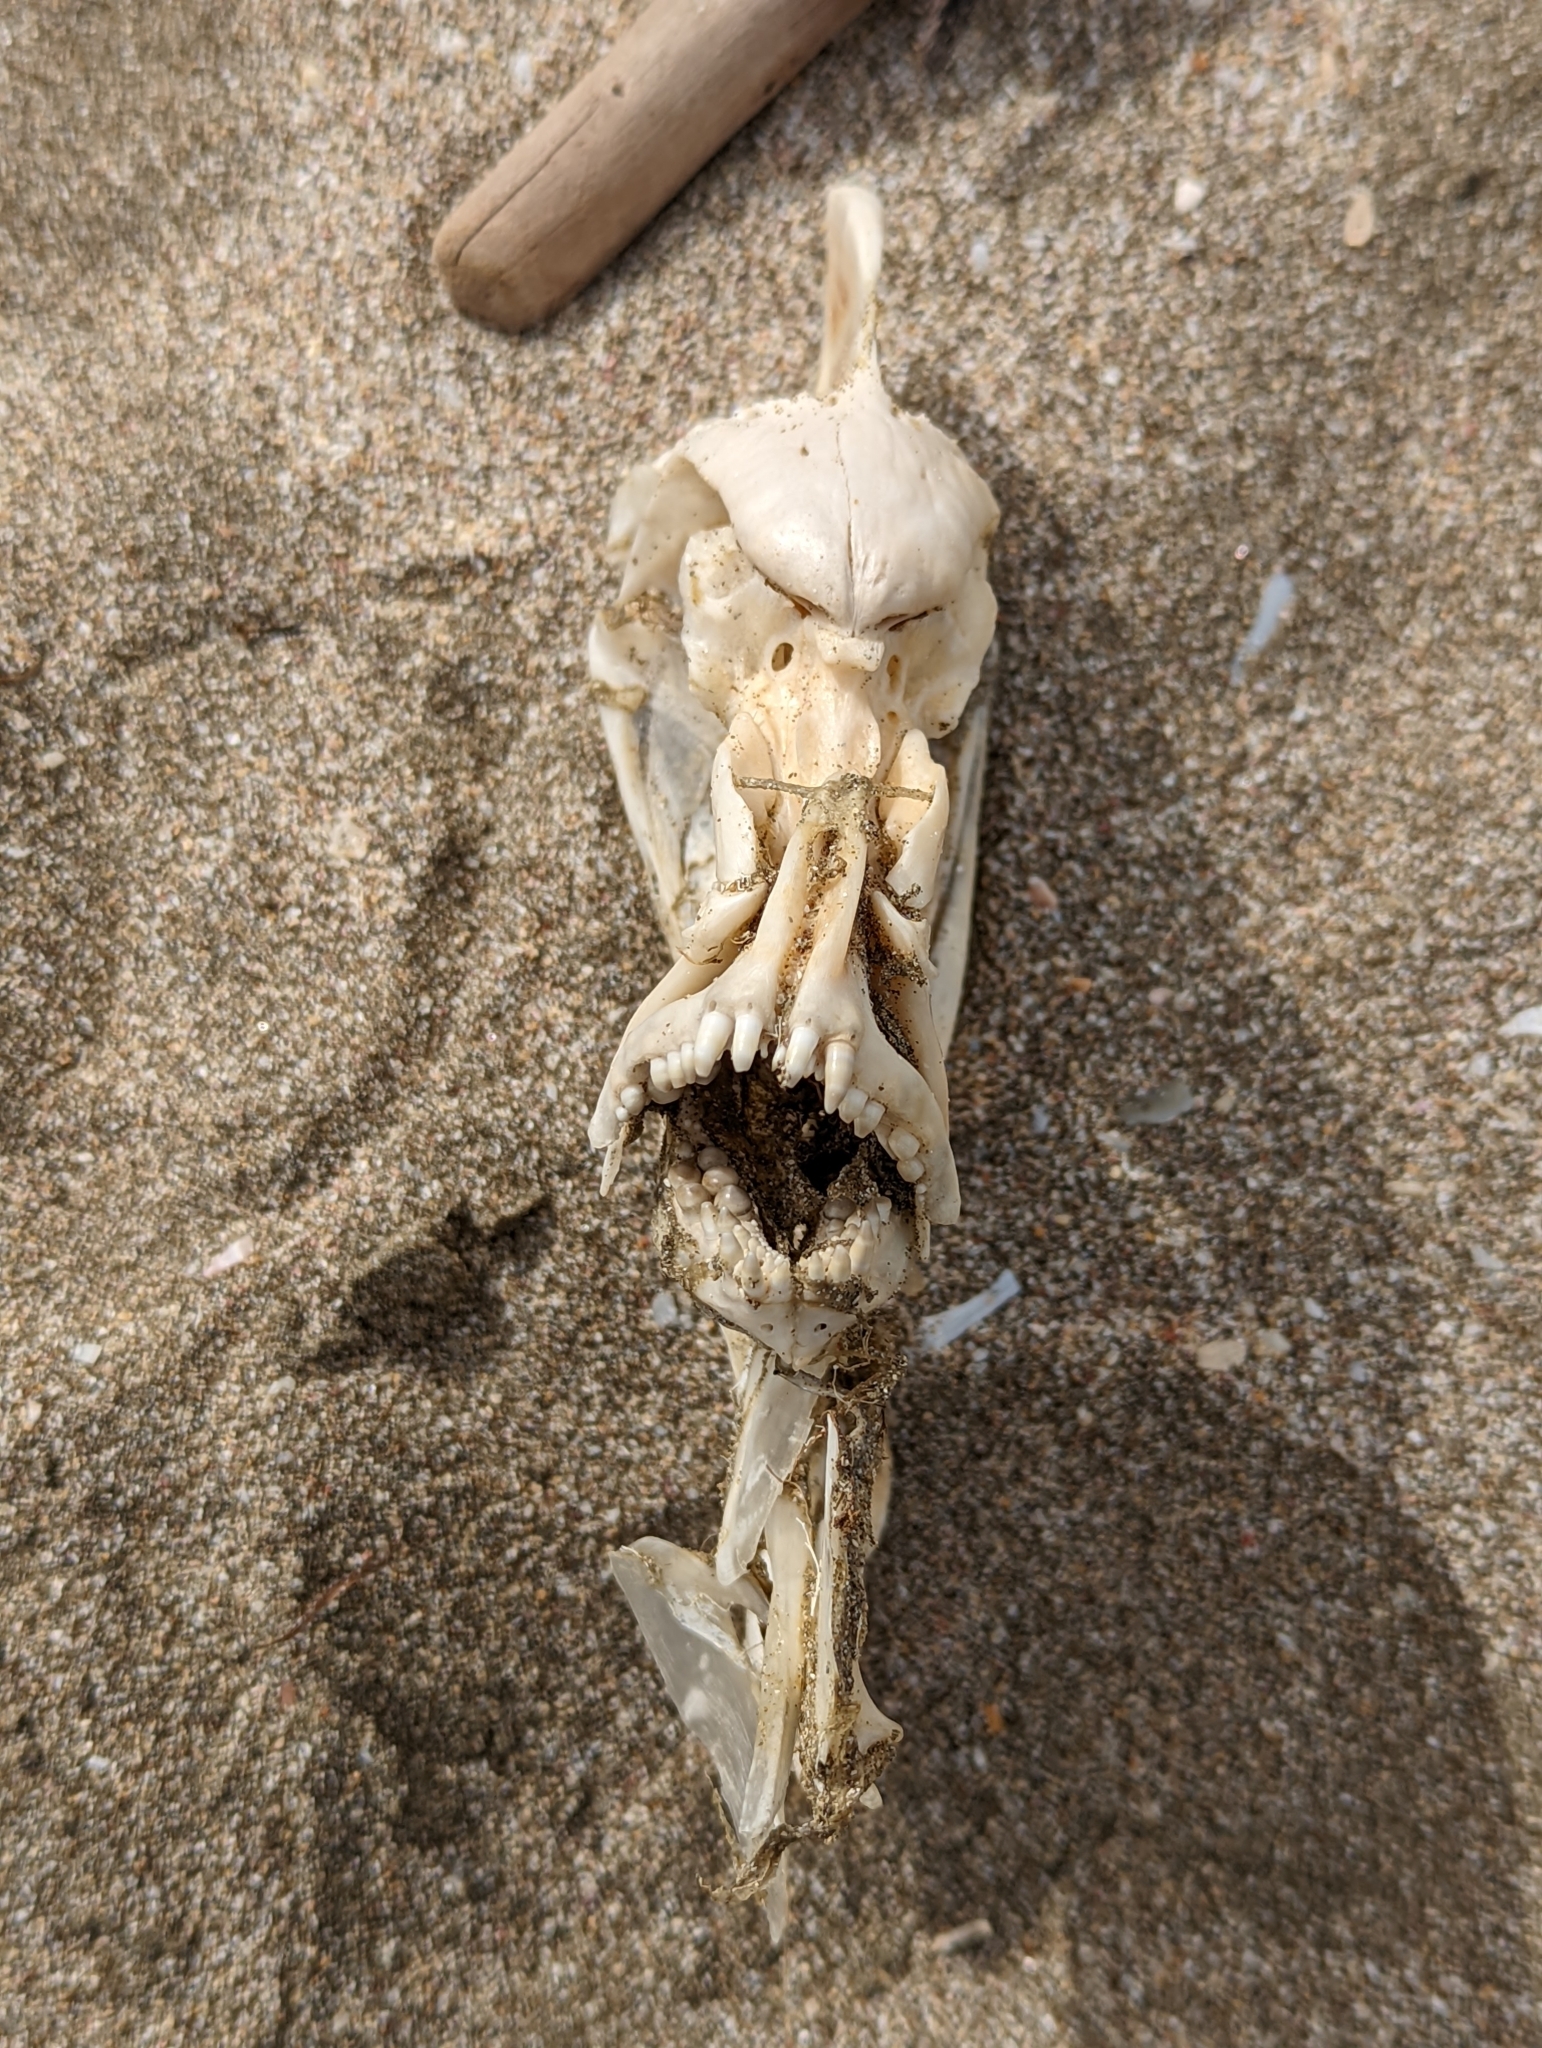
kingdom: Animalia
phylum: Chordata
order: Perciformes
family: Sparidae
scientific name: Sparidae
